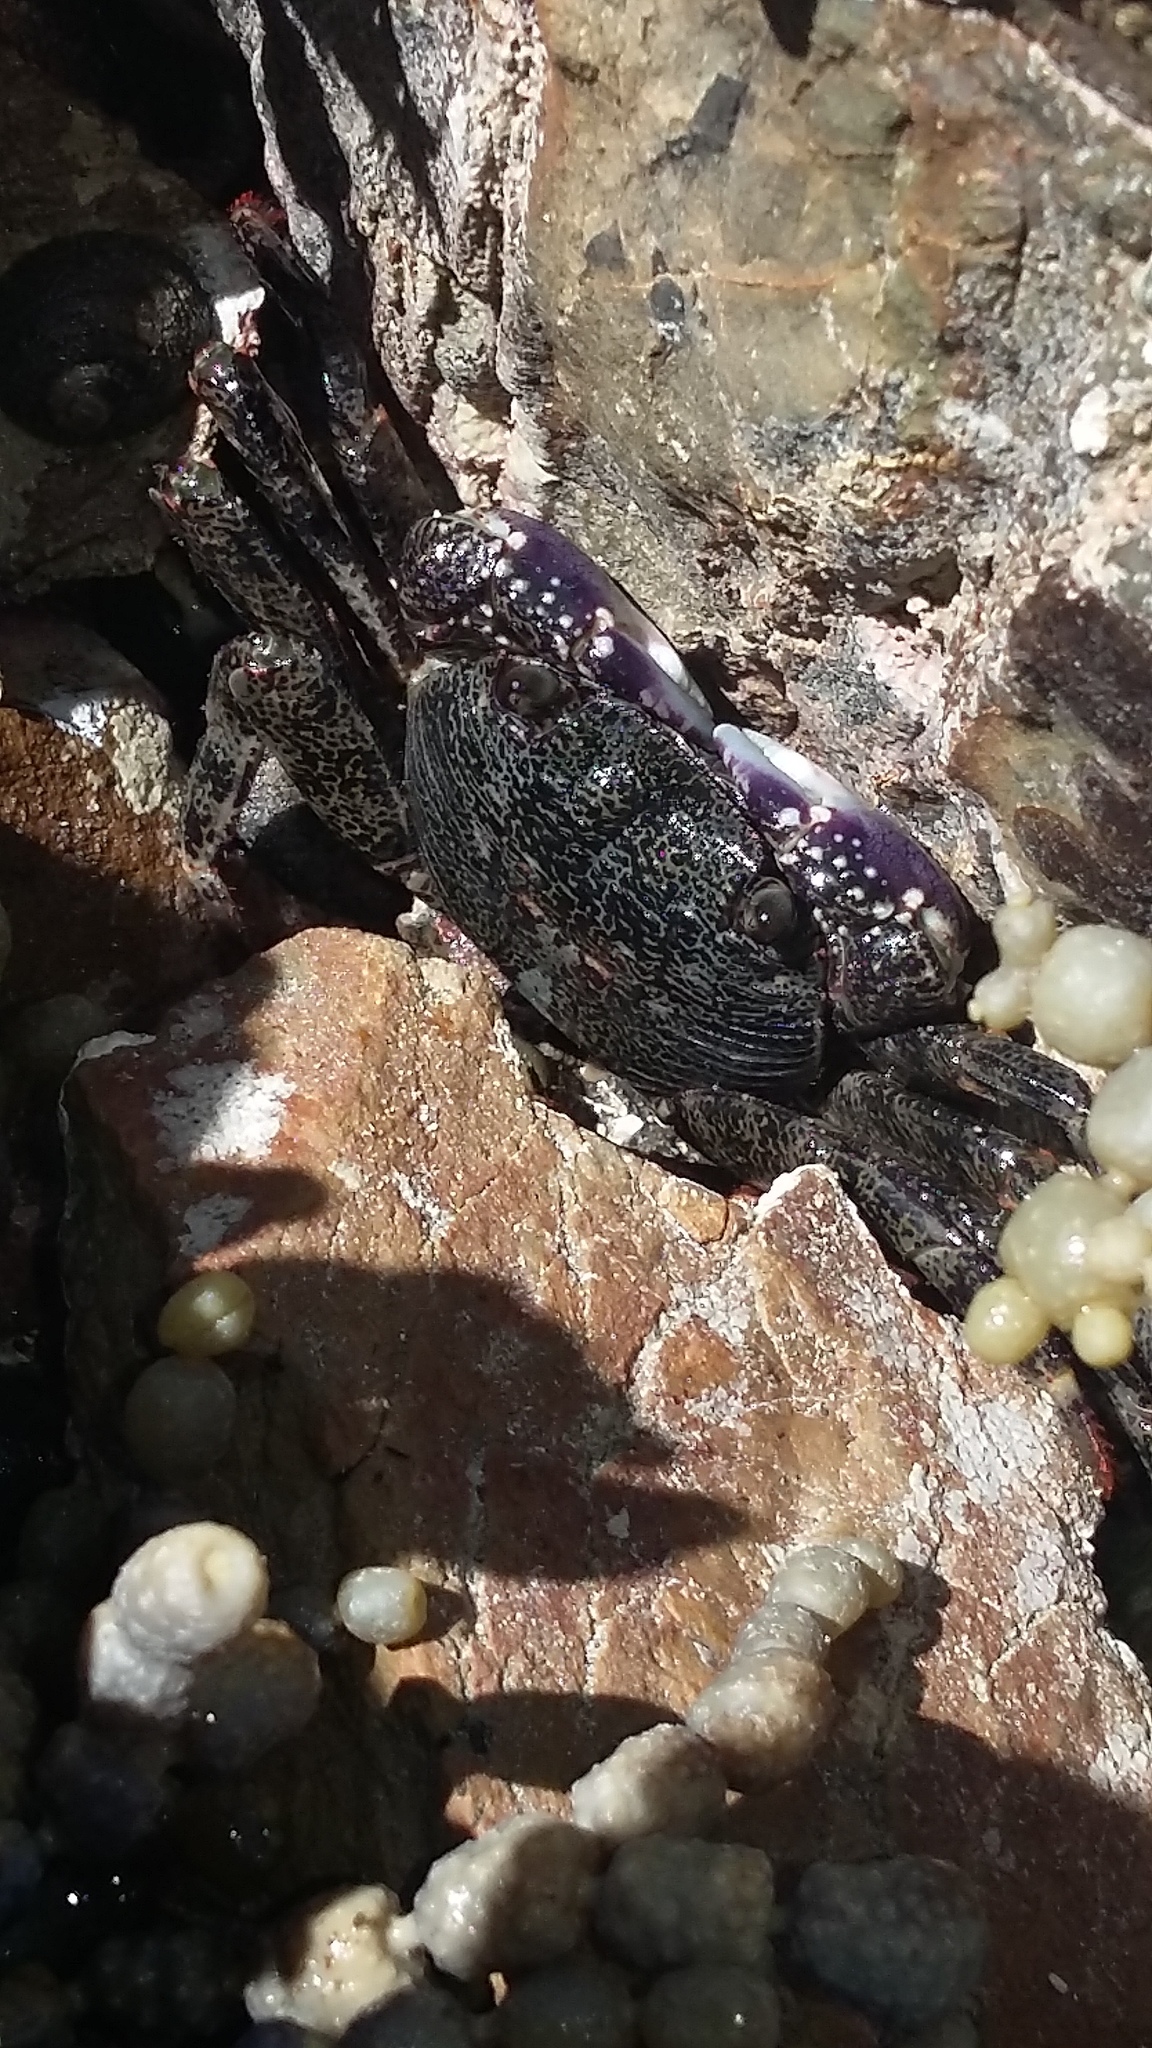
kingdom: Animalia
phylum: Arthropoda
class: Malacostraca
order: Decapoda
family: Grapsidae
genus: Leptograpsus
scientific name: Leptograpsus variegatus
